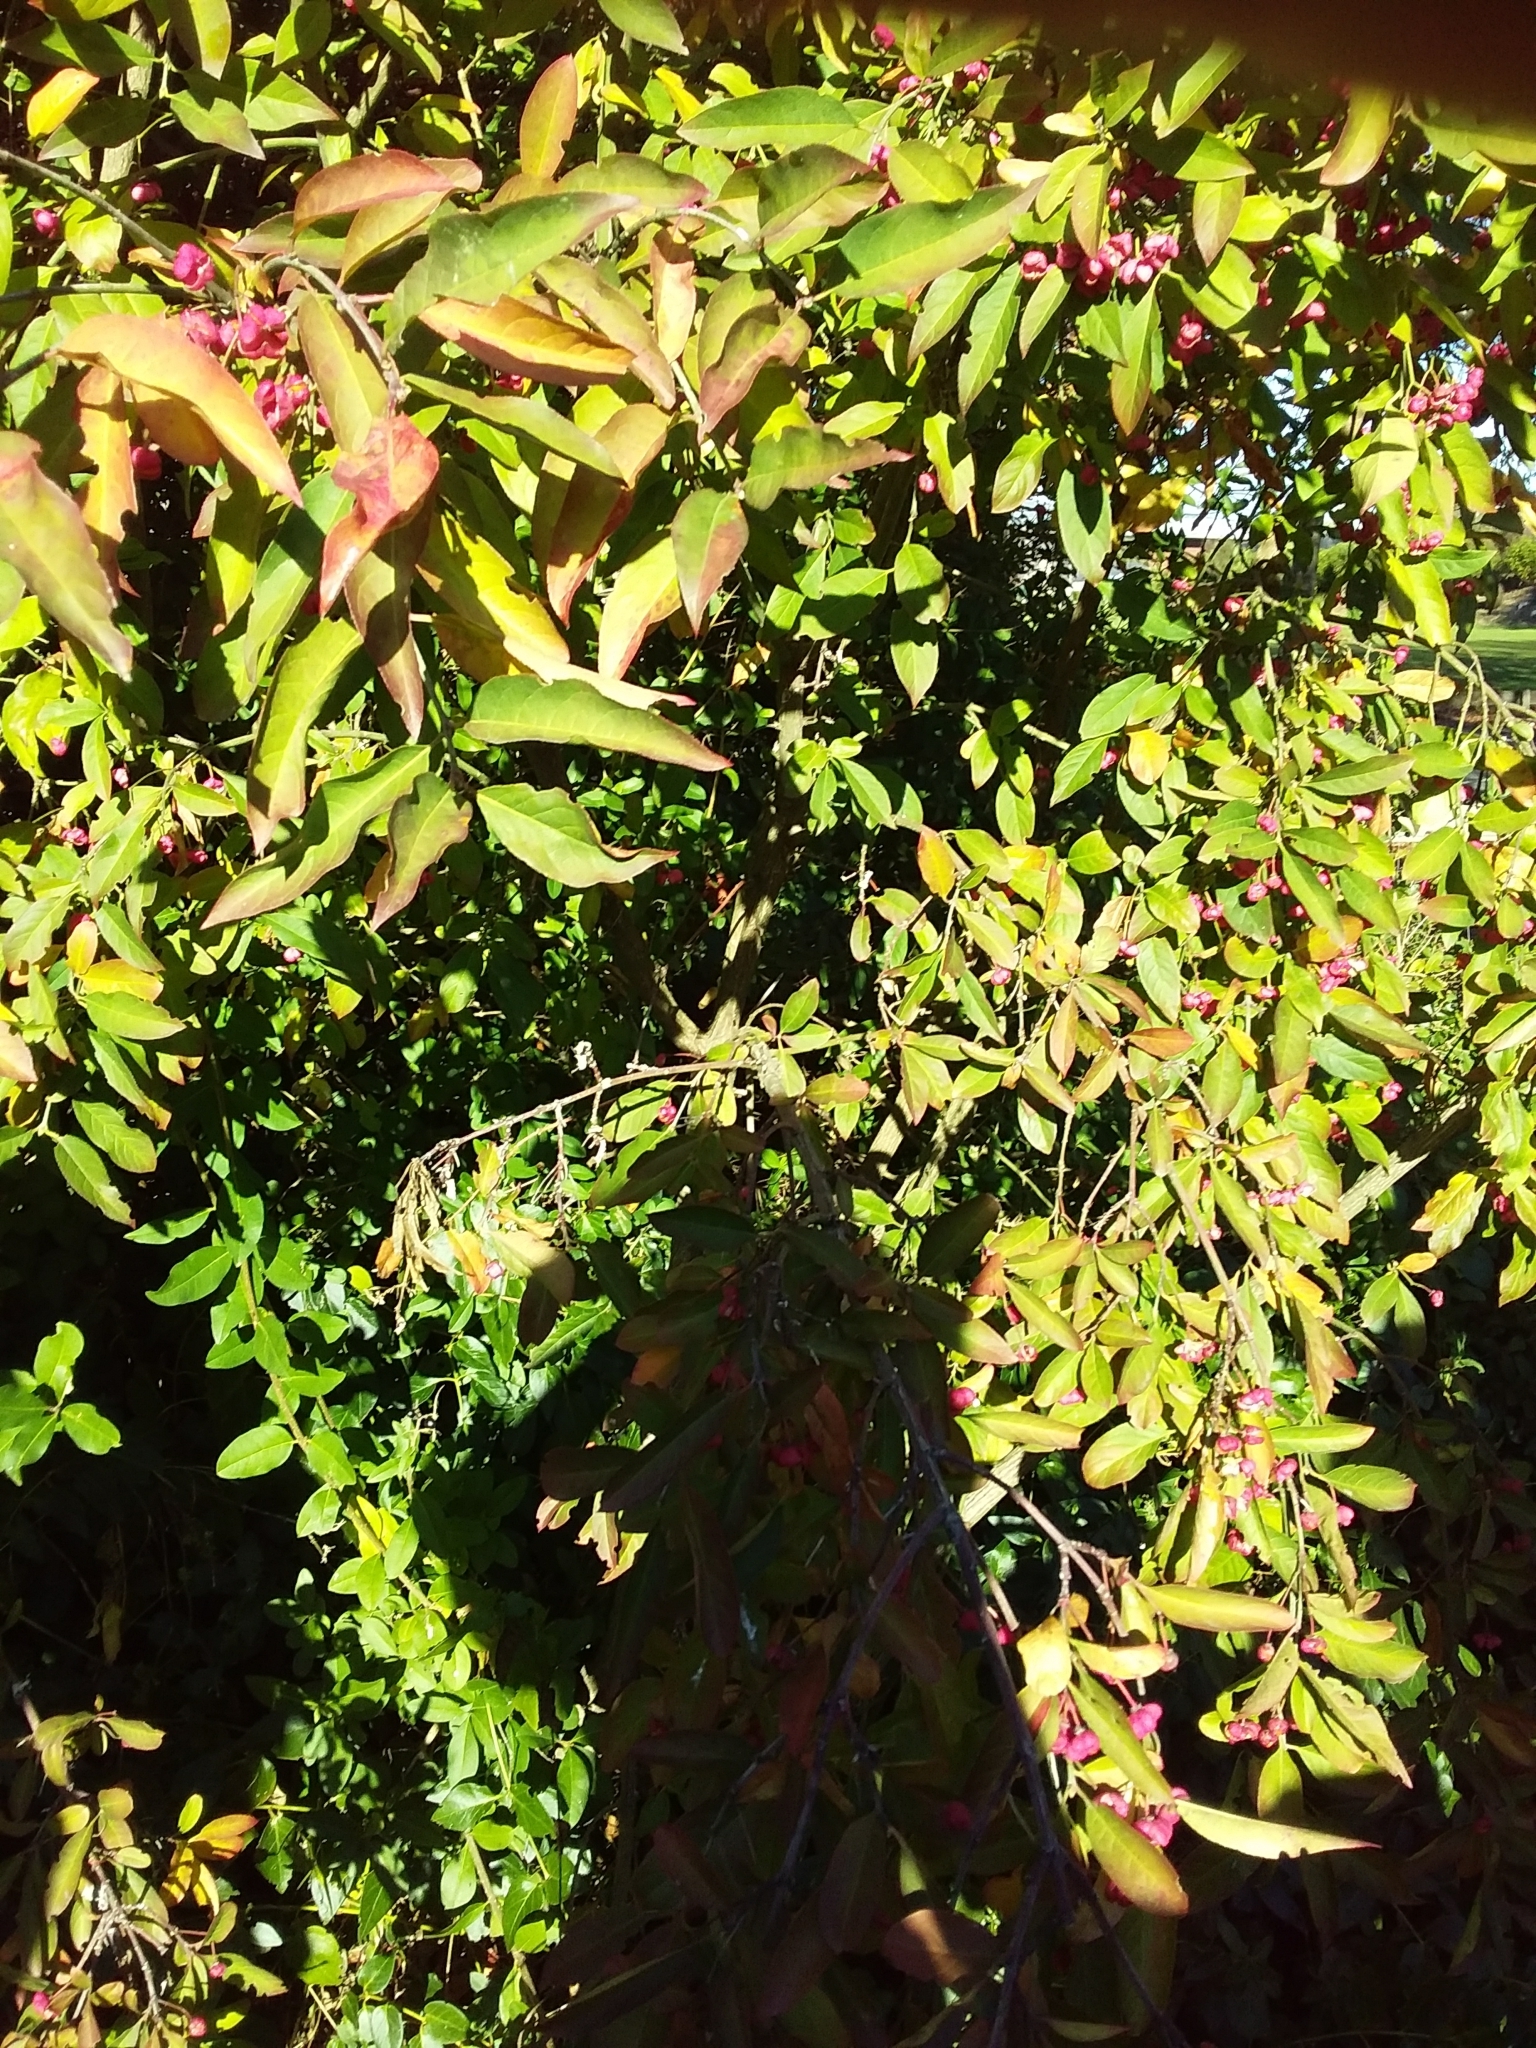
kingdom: Plantae
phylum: Tracheophyta
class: Magnoliopsida
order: Celastrales
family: Celastraceae
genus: Euonymus
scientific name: Euonymus europaeus
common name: Spindle
